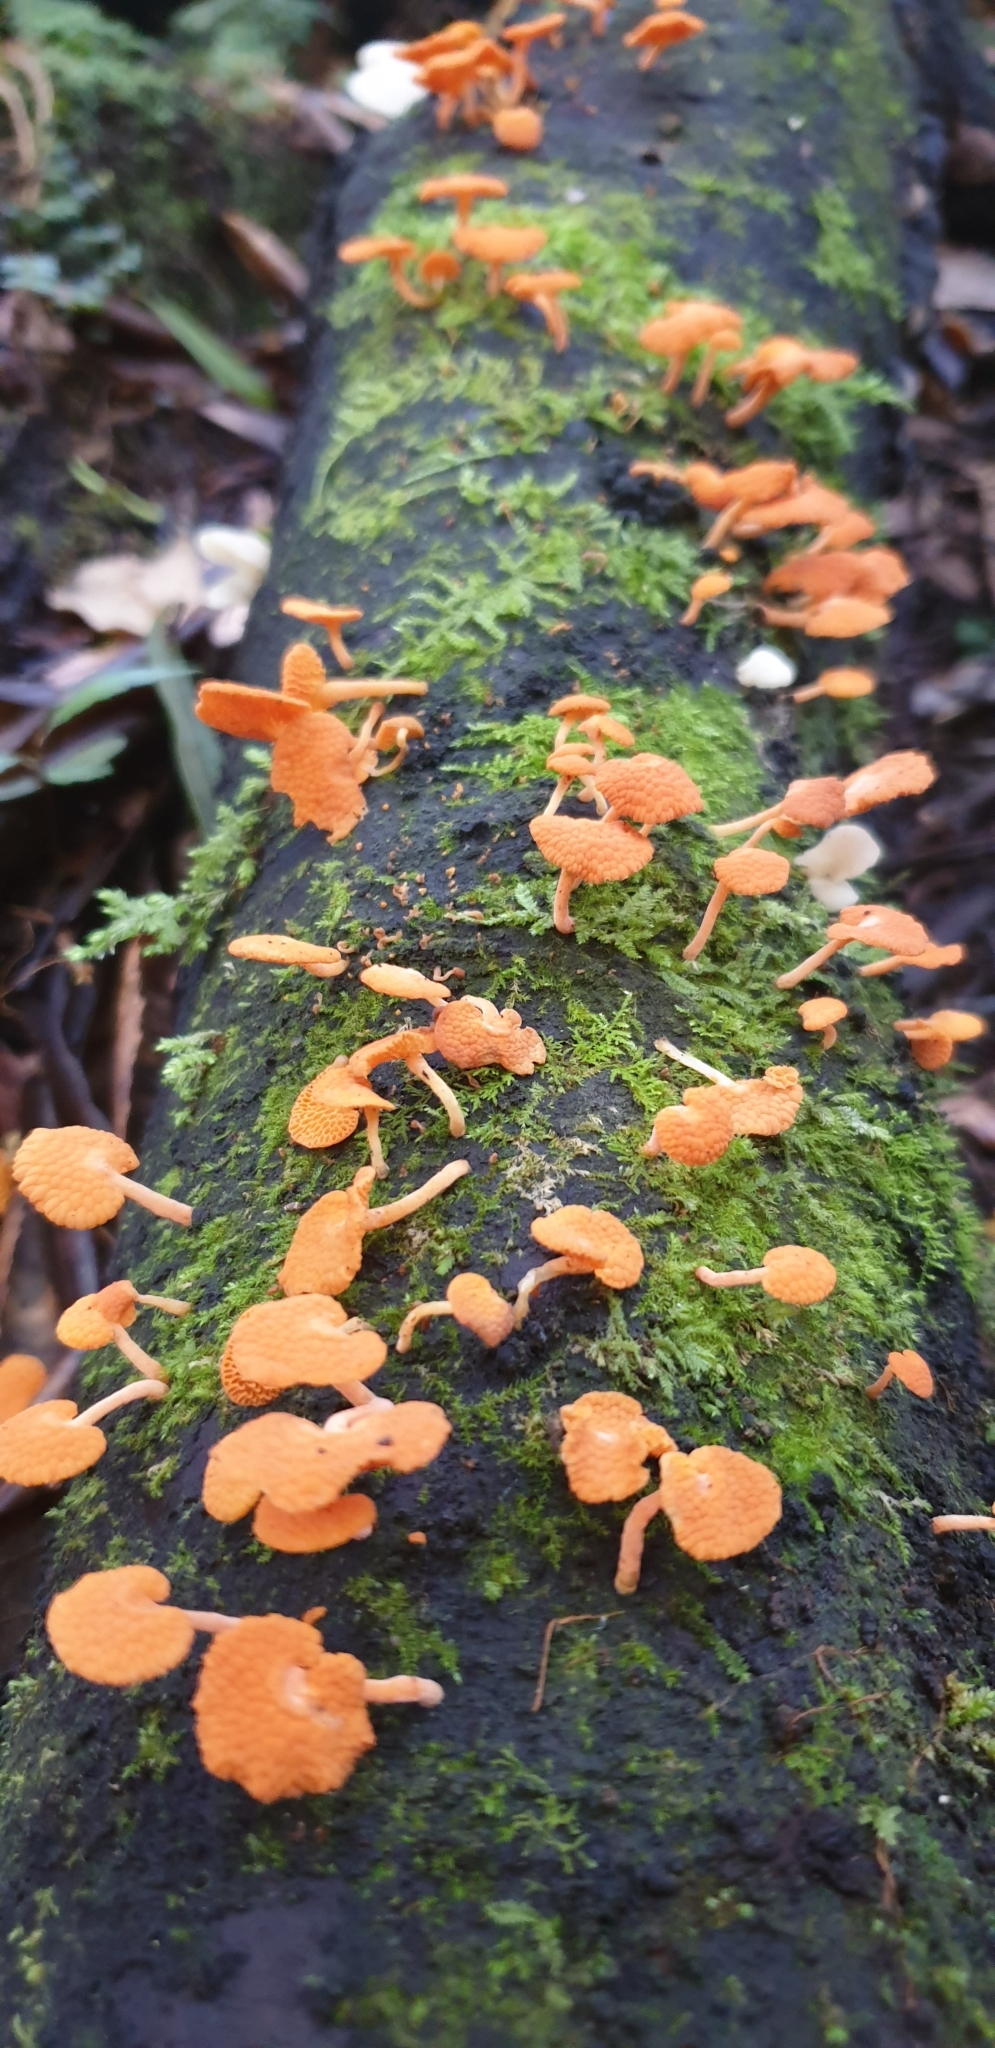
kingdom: Fungi
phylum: Basidiomycota
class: Agaricomycetes
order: Agaricales
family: Mycenaceae
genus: Favolaschia
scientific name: Favolaschia claudopus
